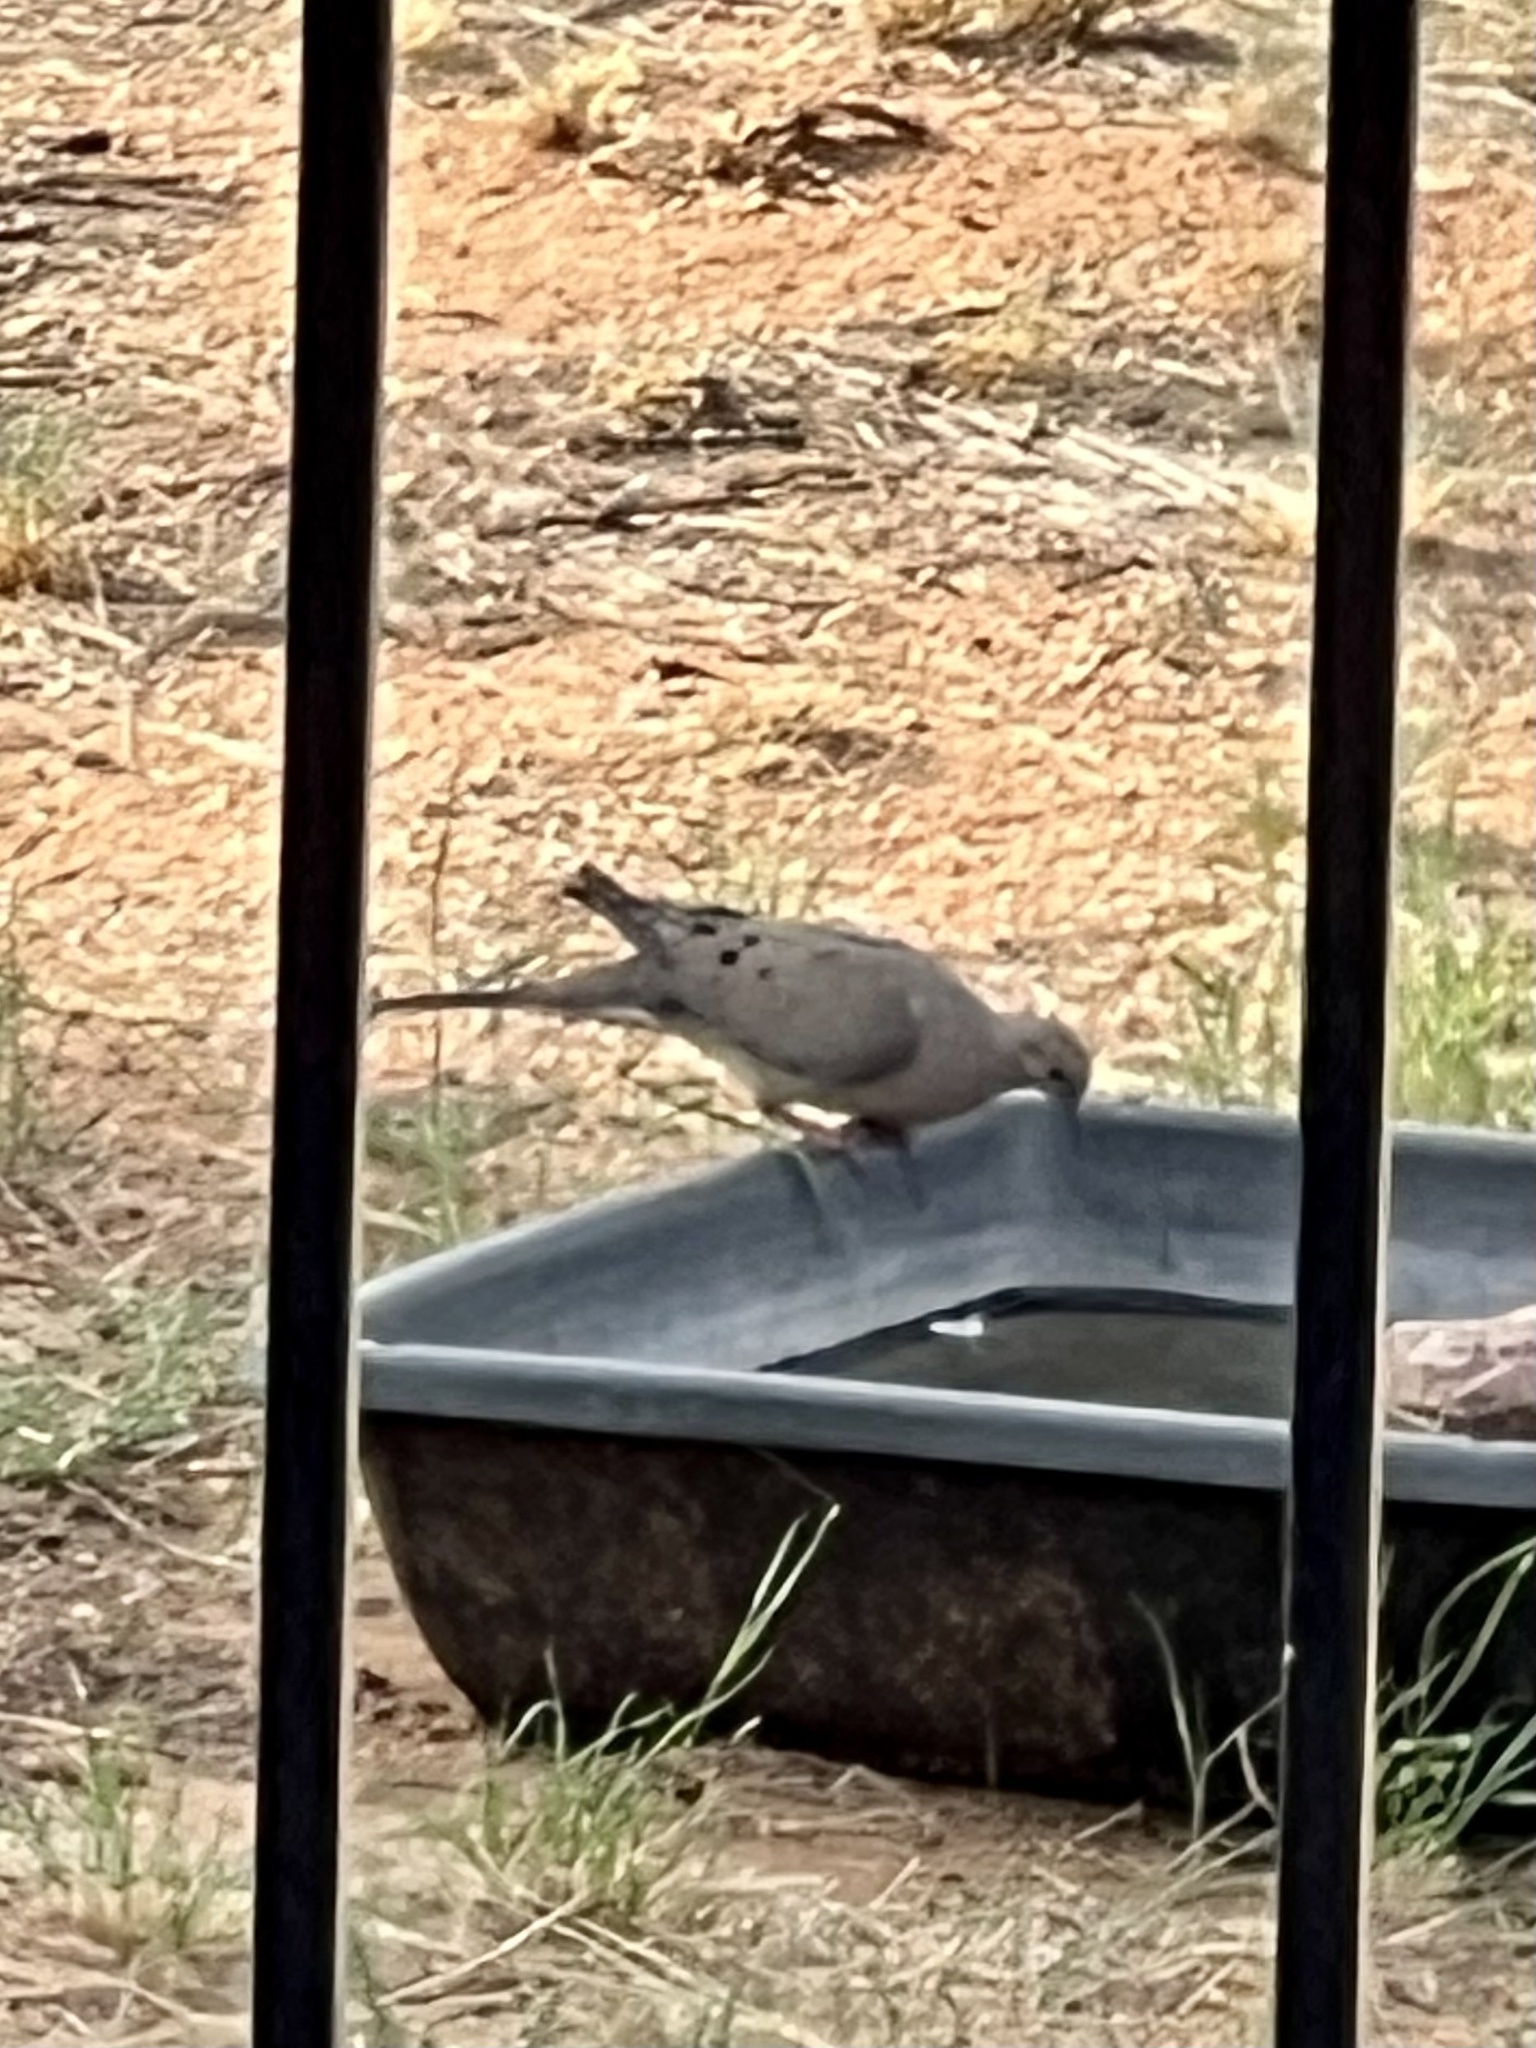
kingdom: Animalia
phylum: Chordata
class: Aves
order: Columbiformes
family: Columbidae
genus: Zenaida
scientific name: Zenaida macroura
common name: Mourning dove
